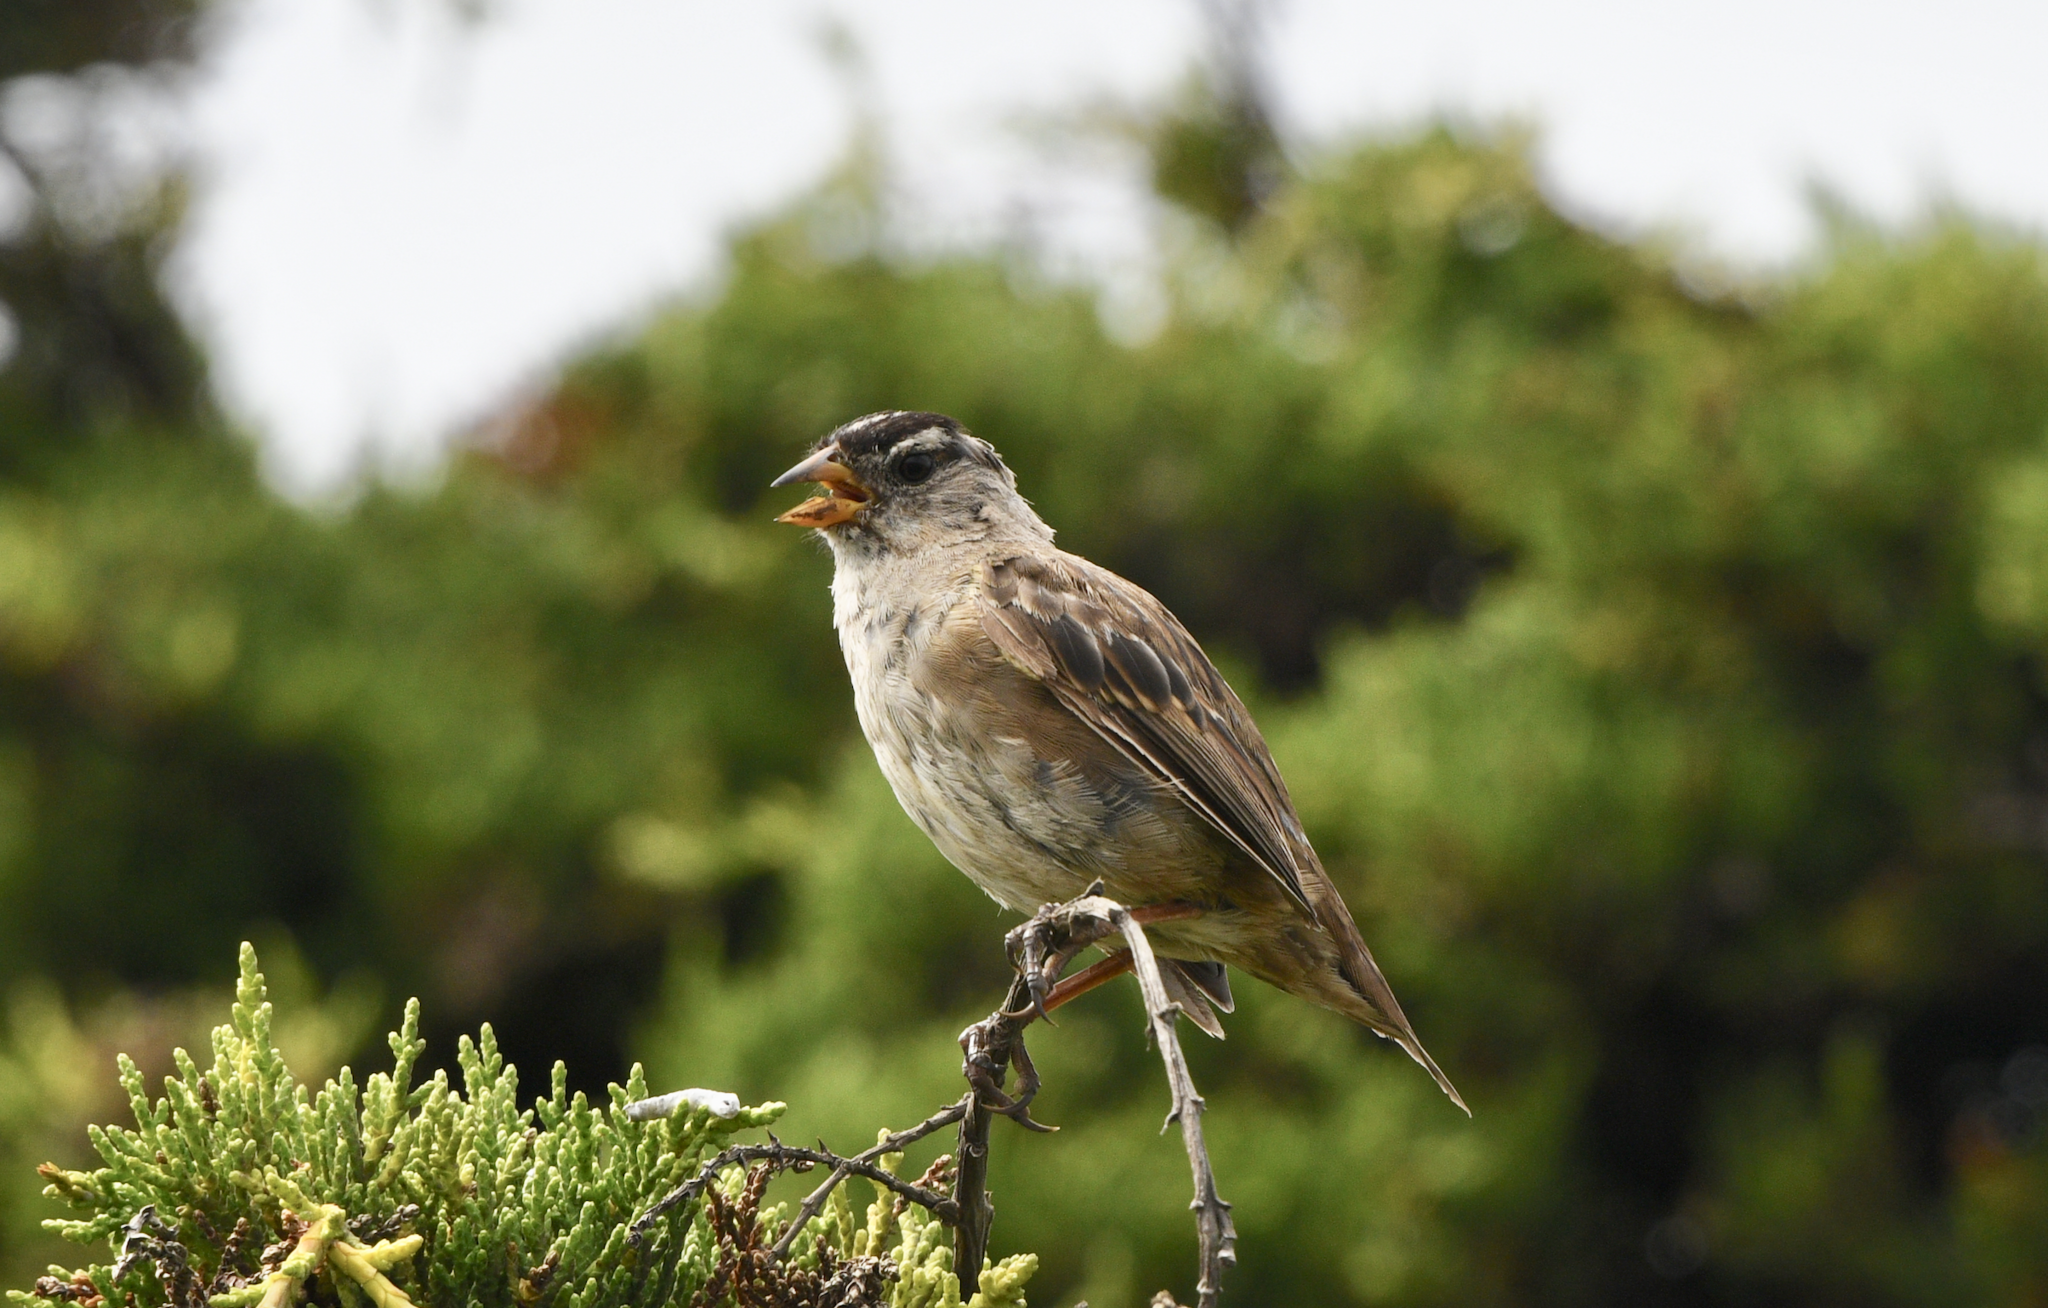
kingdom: Animalia
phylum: Chordata
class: Aves
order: Passeriformes
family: Passerellidae
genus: Zonotrichia
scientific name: Zonotrichia leucophrys
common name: White-crowned sparrow
